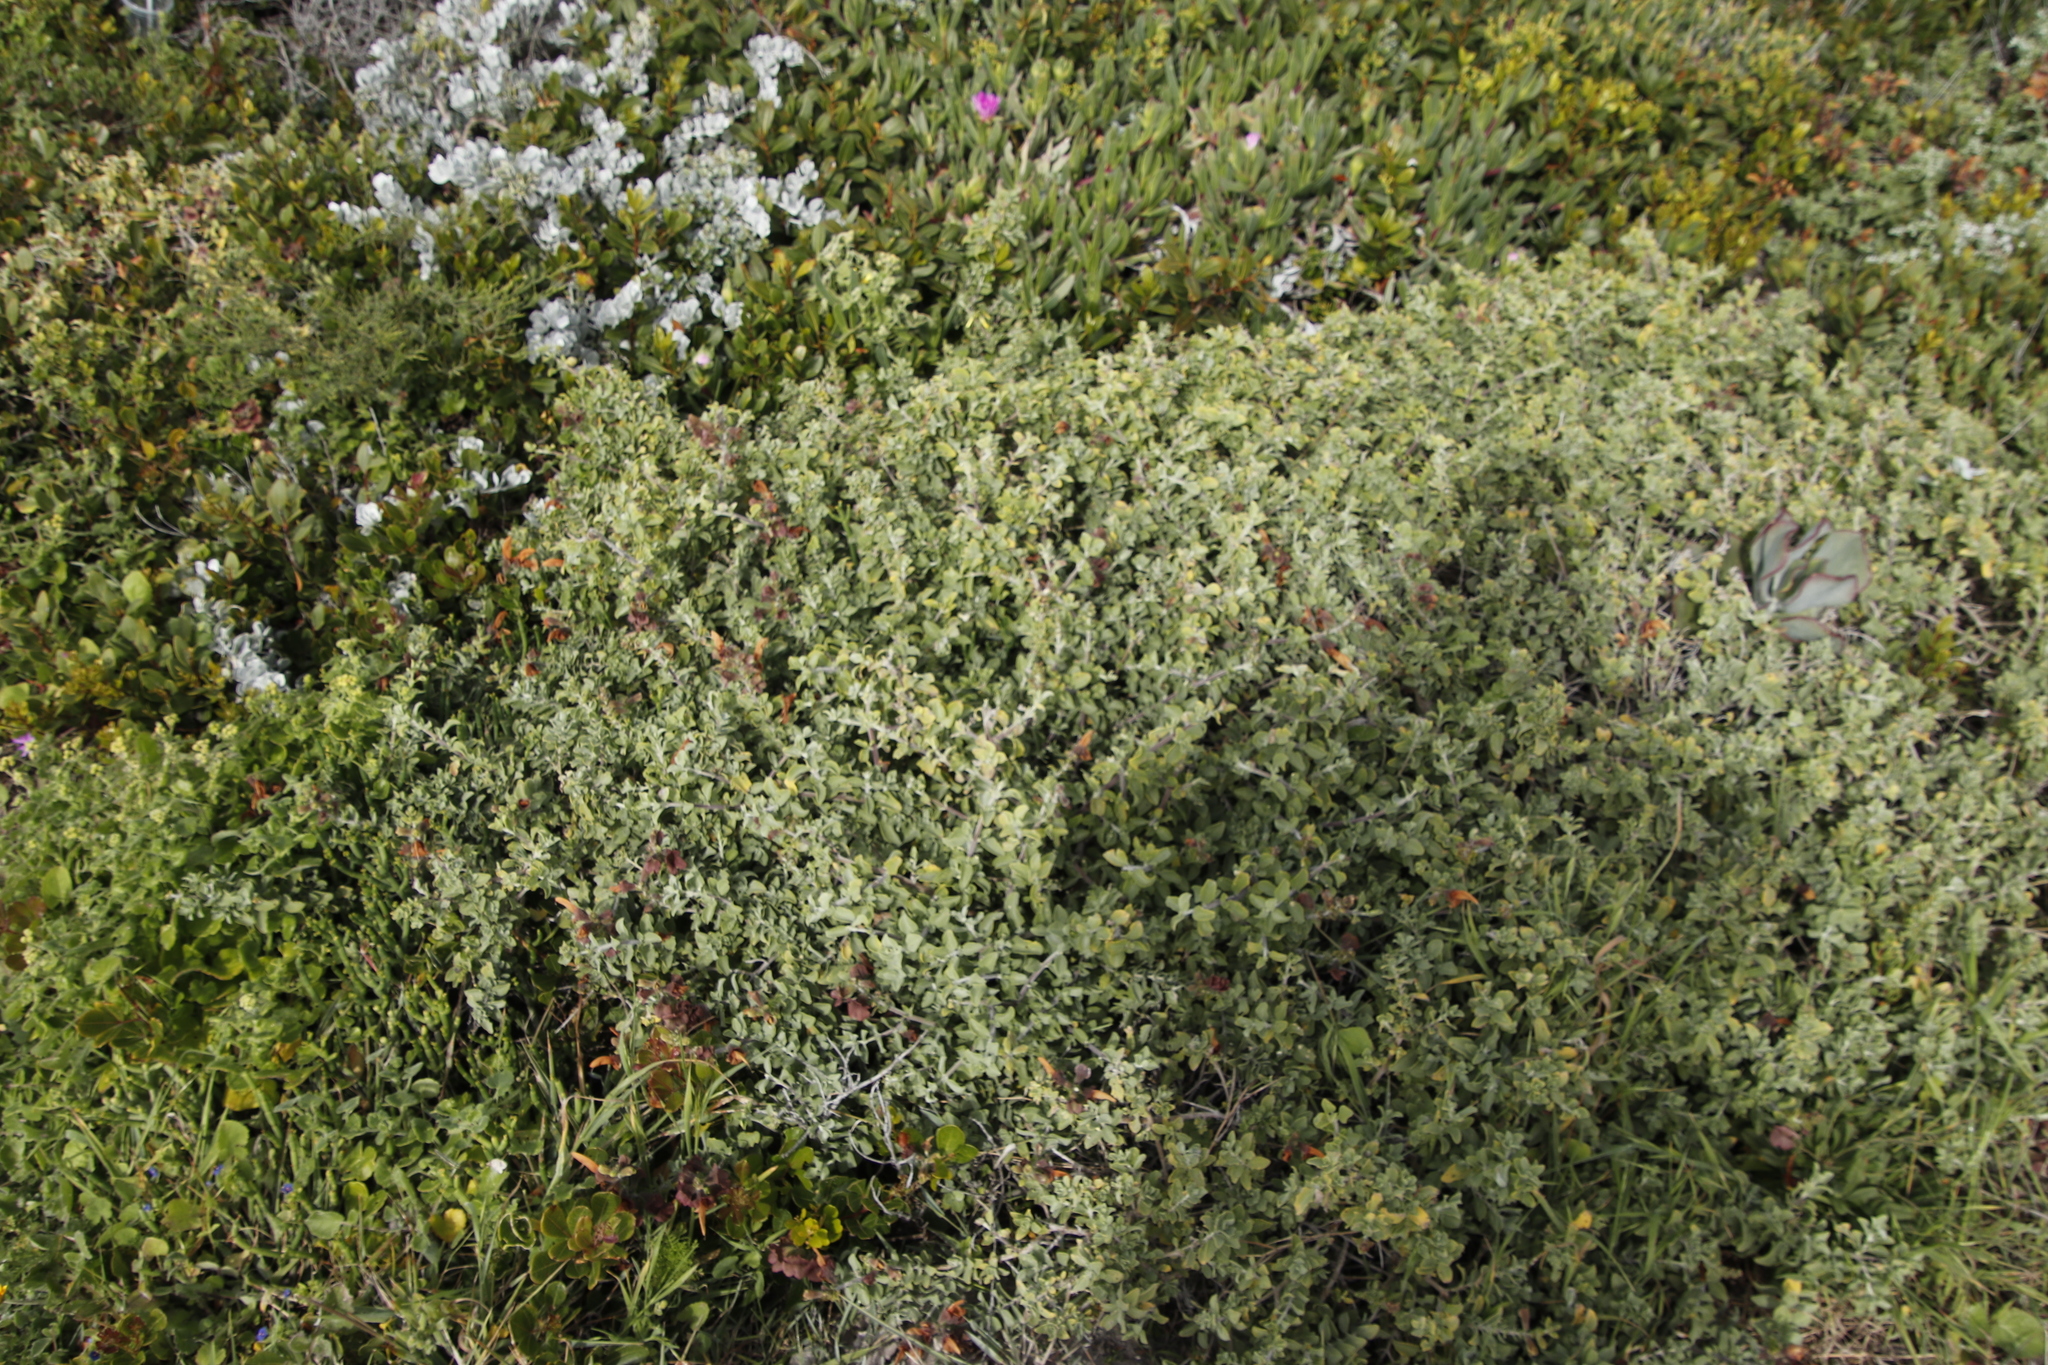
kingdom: Plantae
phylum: Tracheophyta
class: Magnoliopsida
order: Lamiales
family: Lamiaceae
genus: Salvia
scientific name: Salvia aurea
